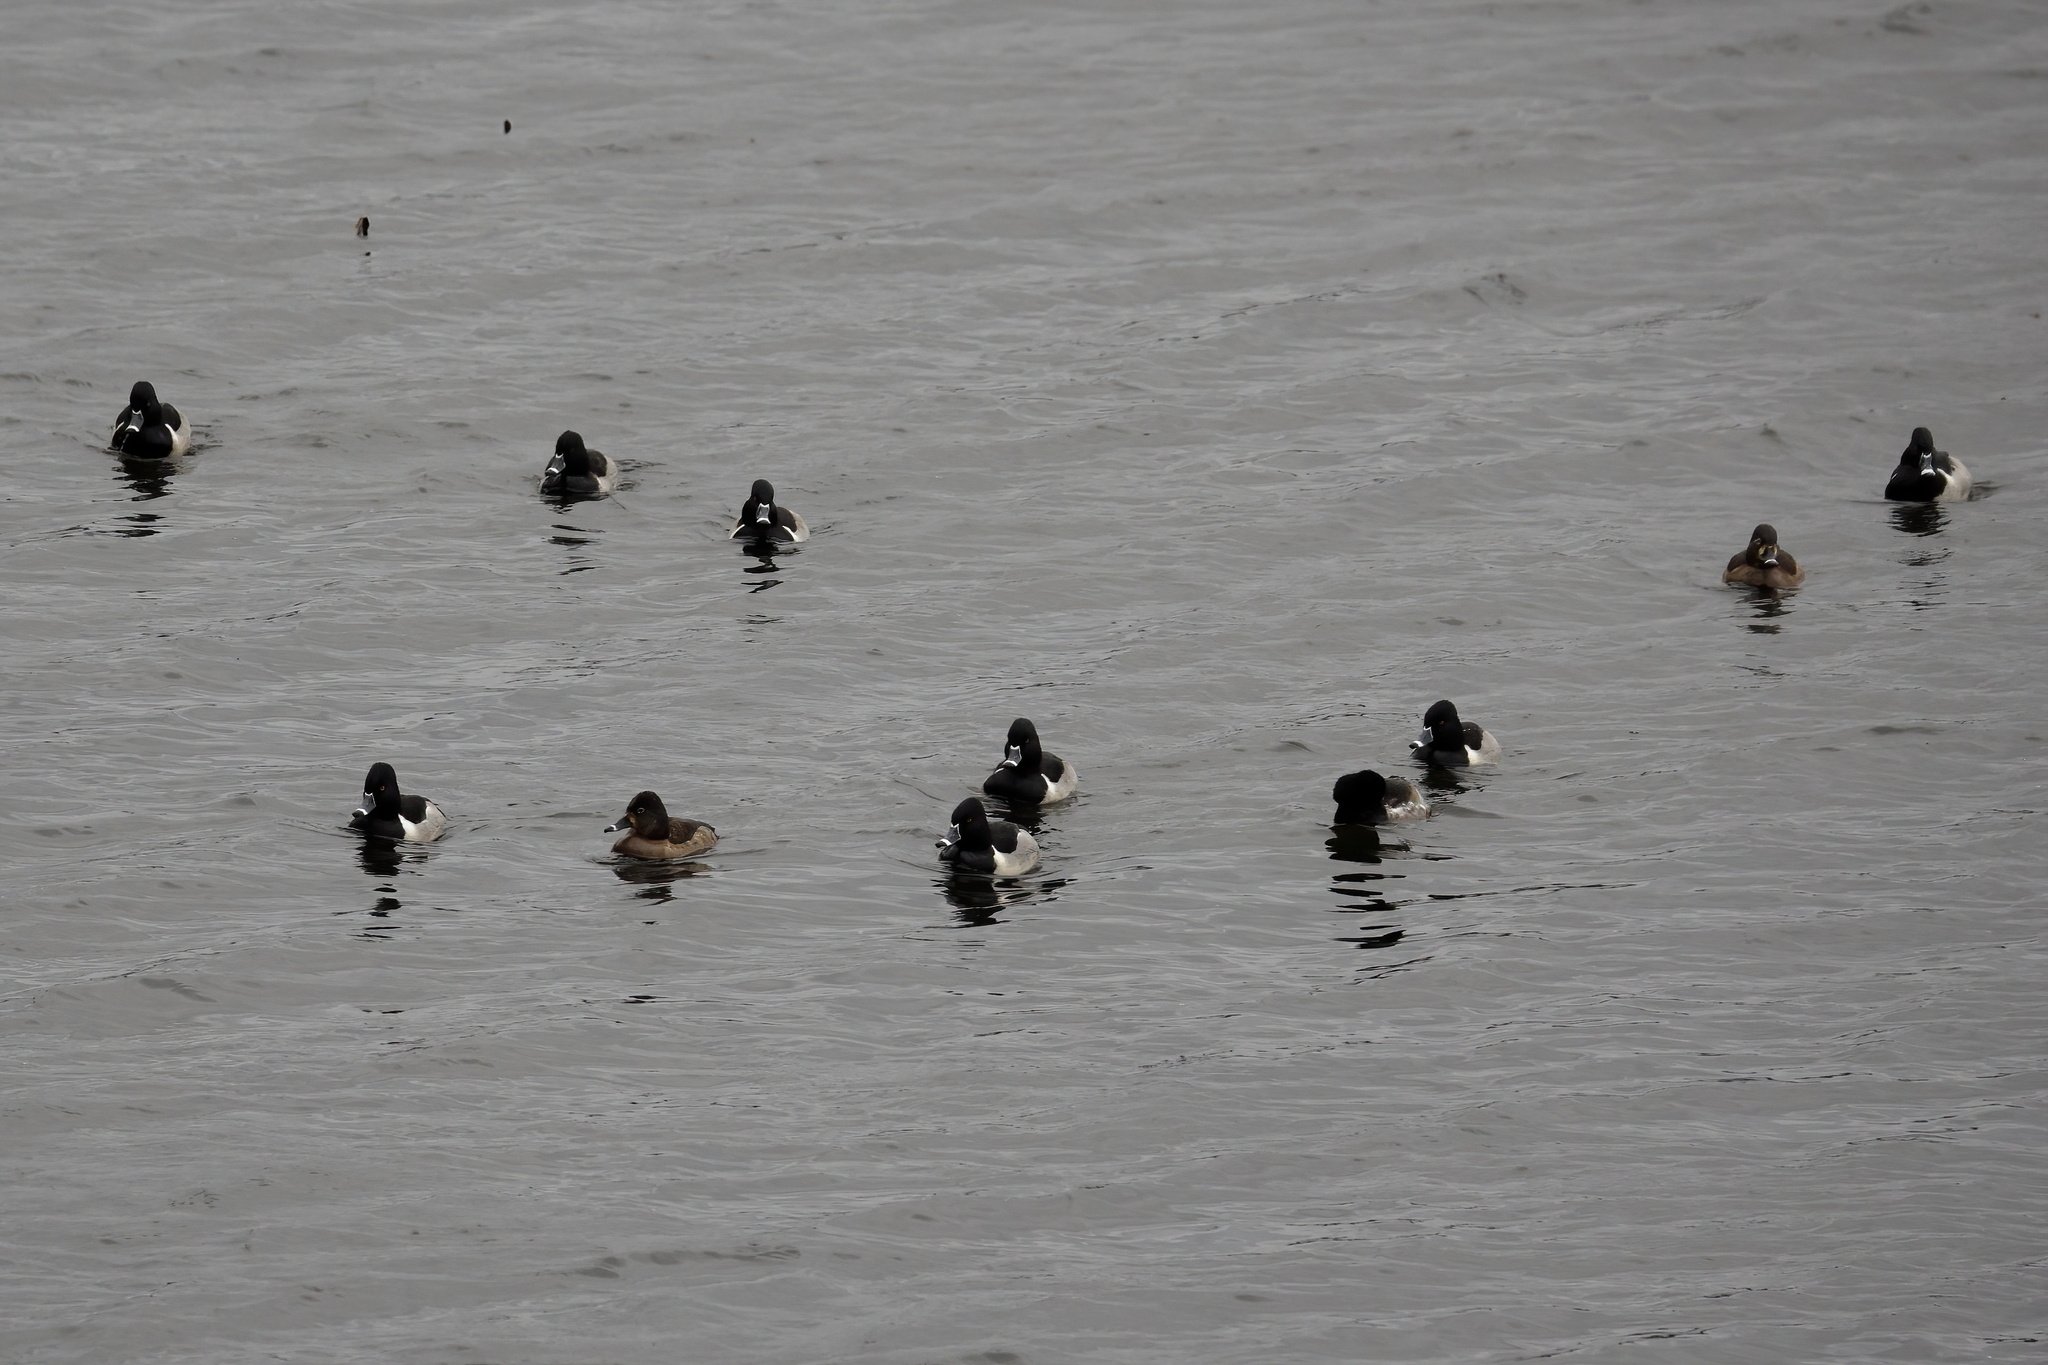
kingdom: Animalia
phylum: Chordata
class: Aves
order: Anseriformes
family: Anatidae
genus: Aythya
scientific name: Aythya collaris
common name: Ring-necked duck
